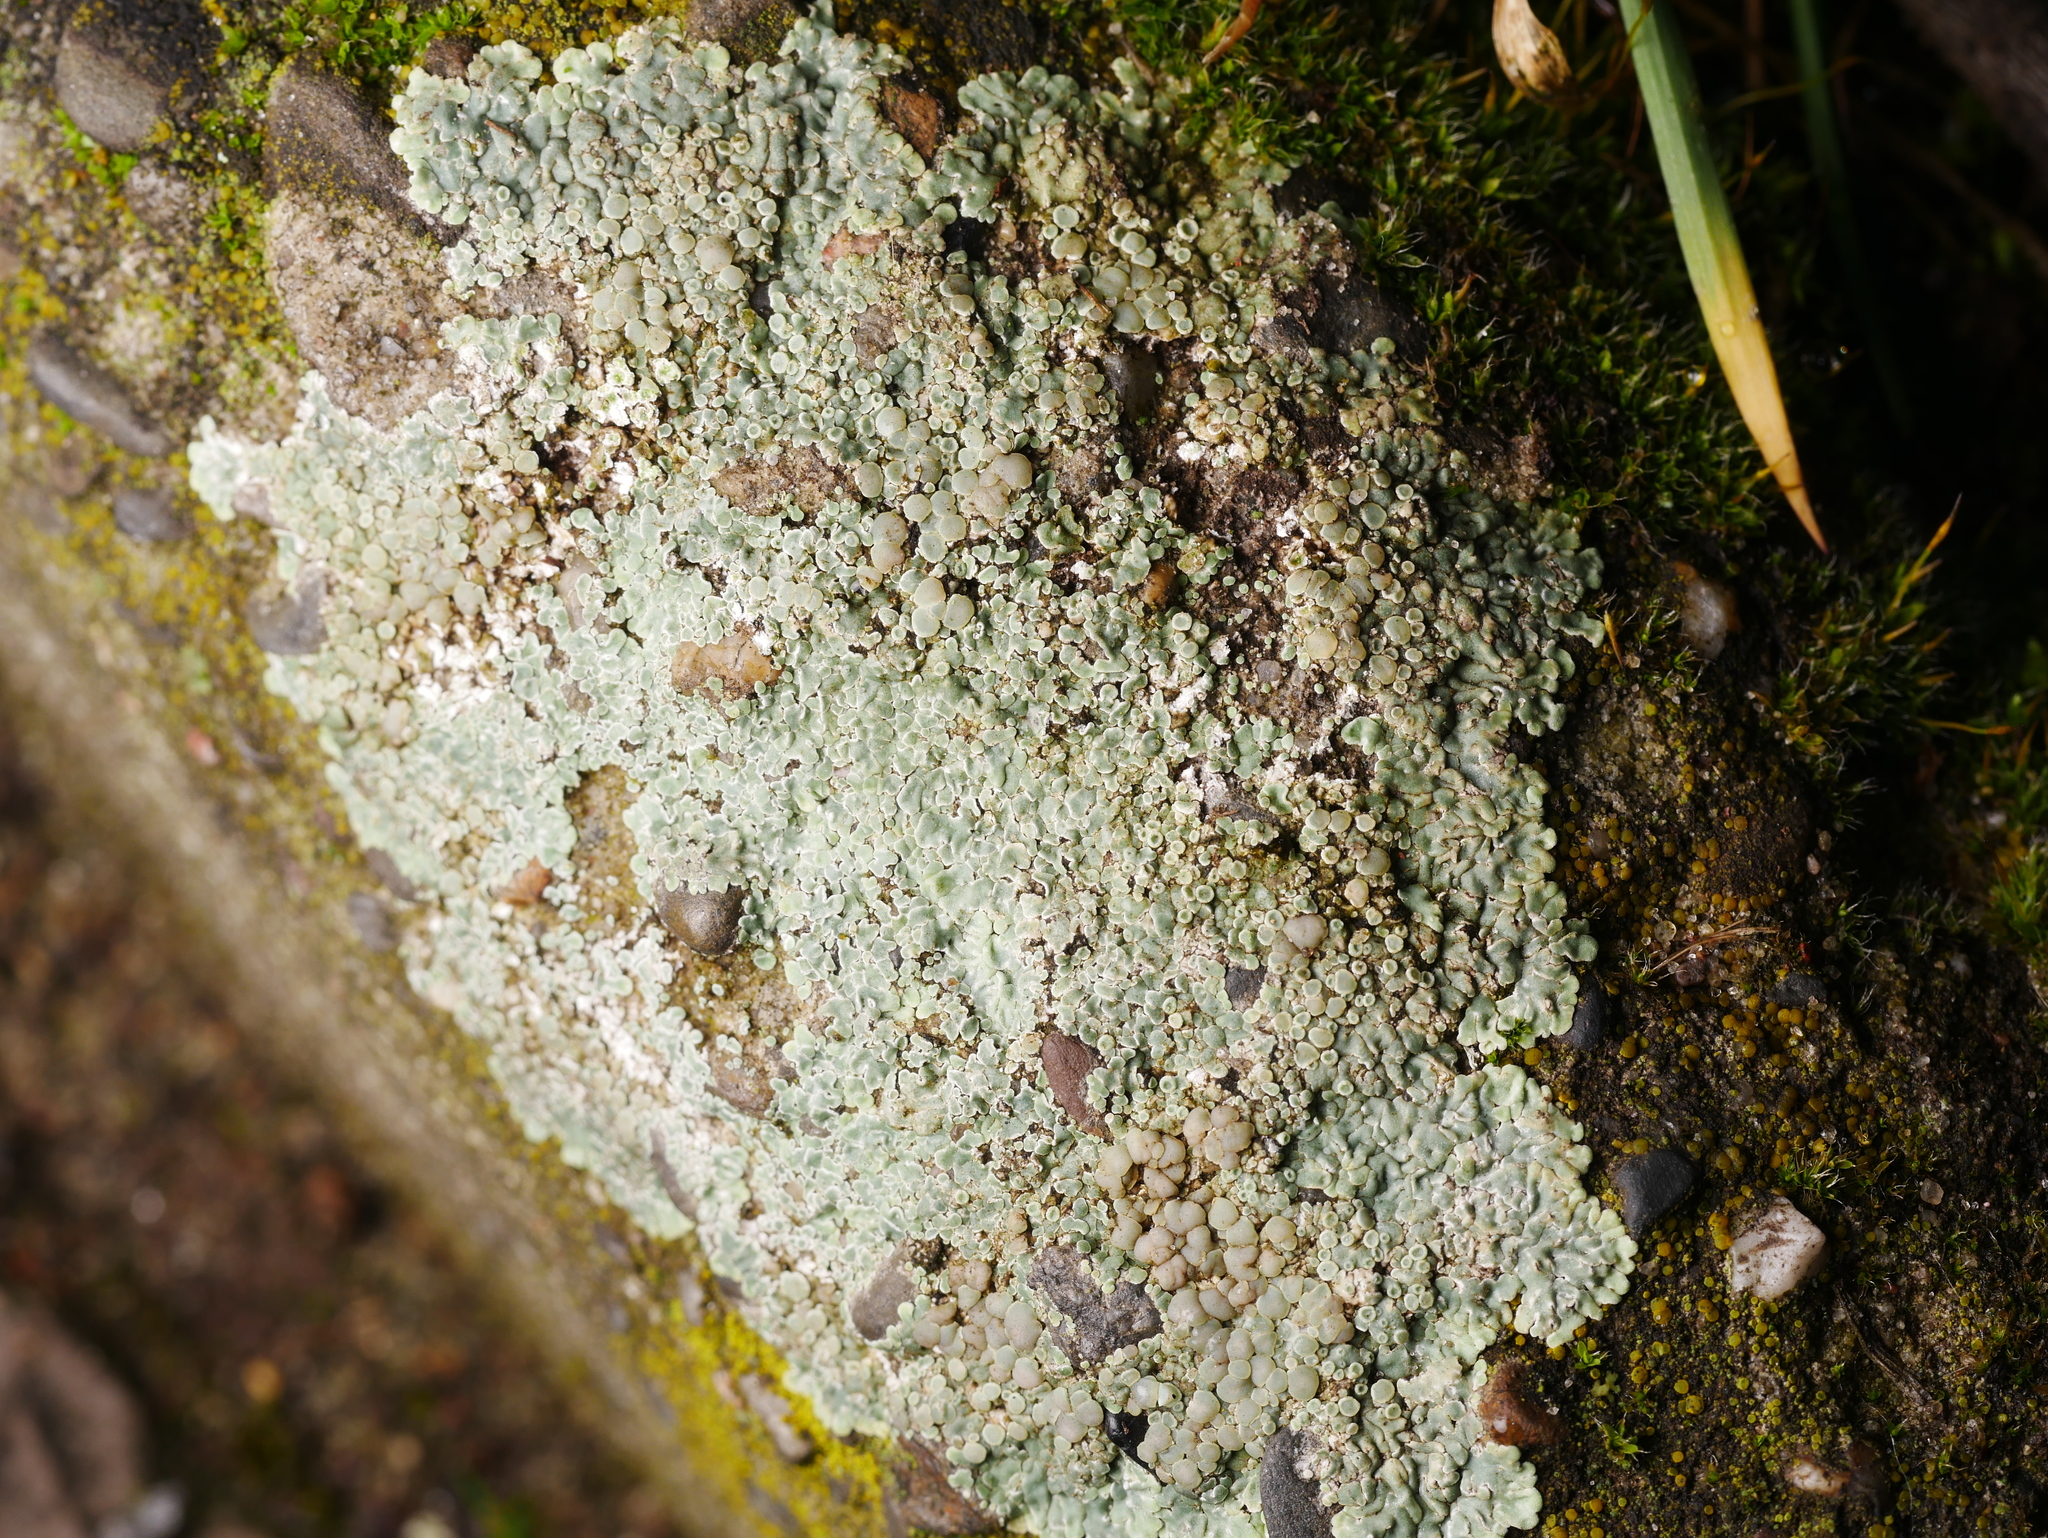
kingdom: Fungi
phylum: Ascomycota
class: Lecanoromycetes
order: Lecanorales
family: Lecanoraceae
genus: Protoparmeliopsis
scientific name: Protoparmeliopsis muralis
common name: Stonewall rim lichen
